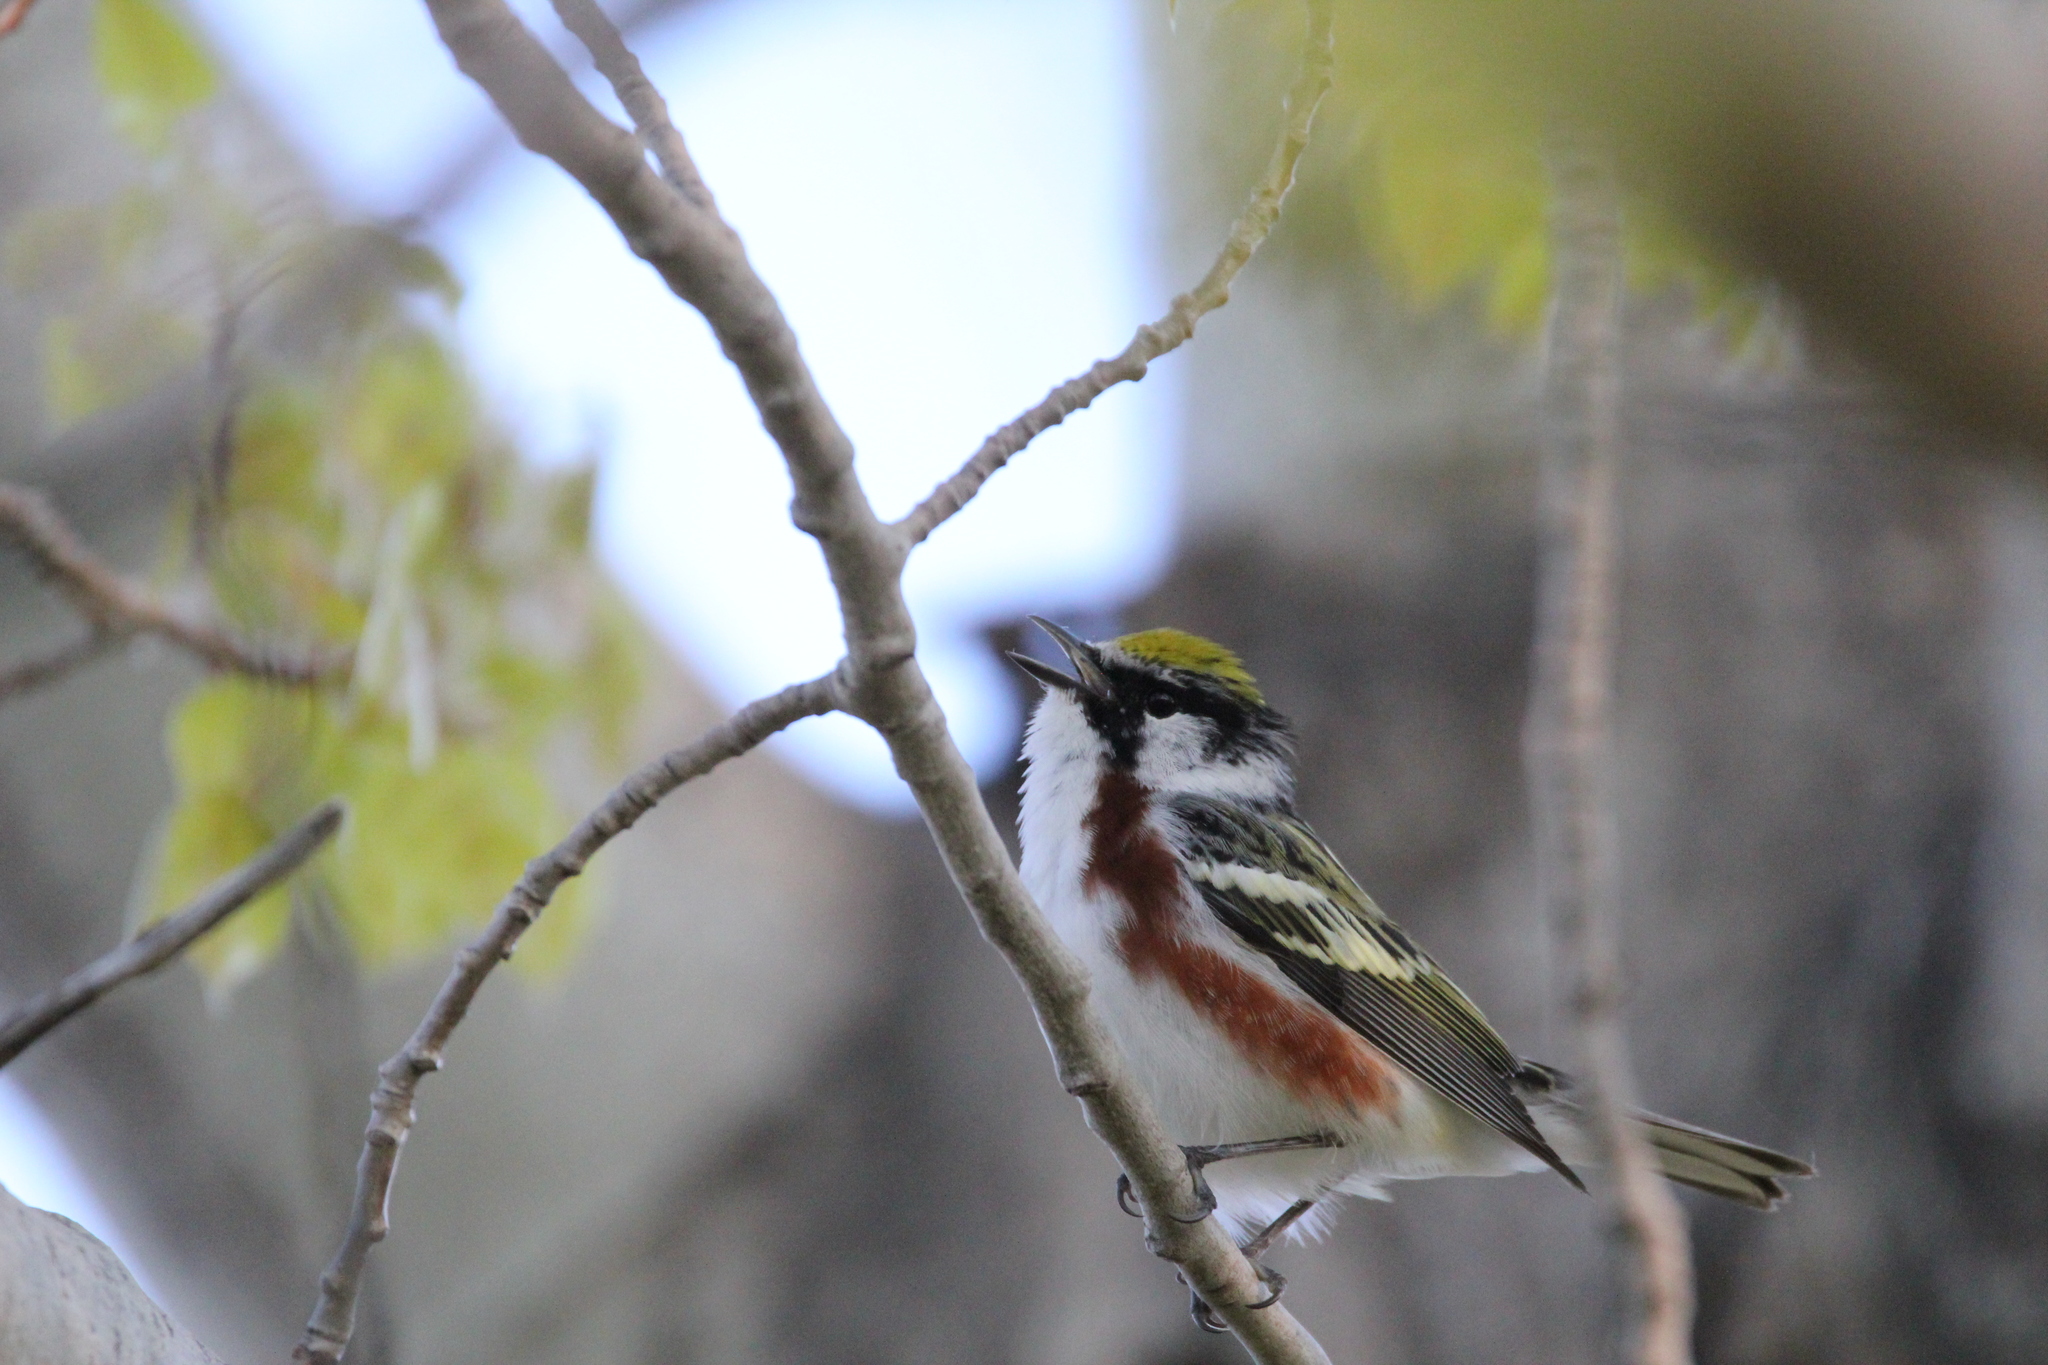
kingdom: Animalia
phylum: Chordata
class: Aves
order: Passeriformes
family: Parulidae
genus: Setophaga
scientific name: Setophaga pensylvanica
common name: Chestnut-sided warbler
